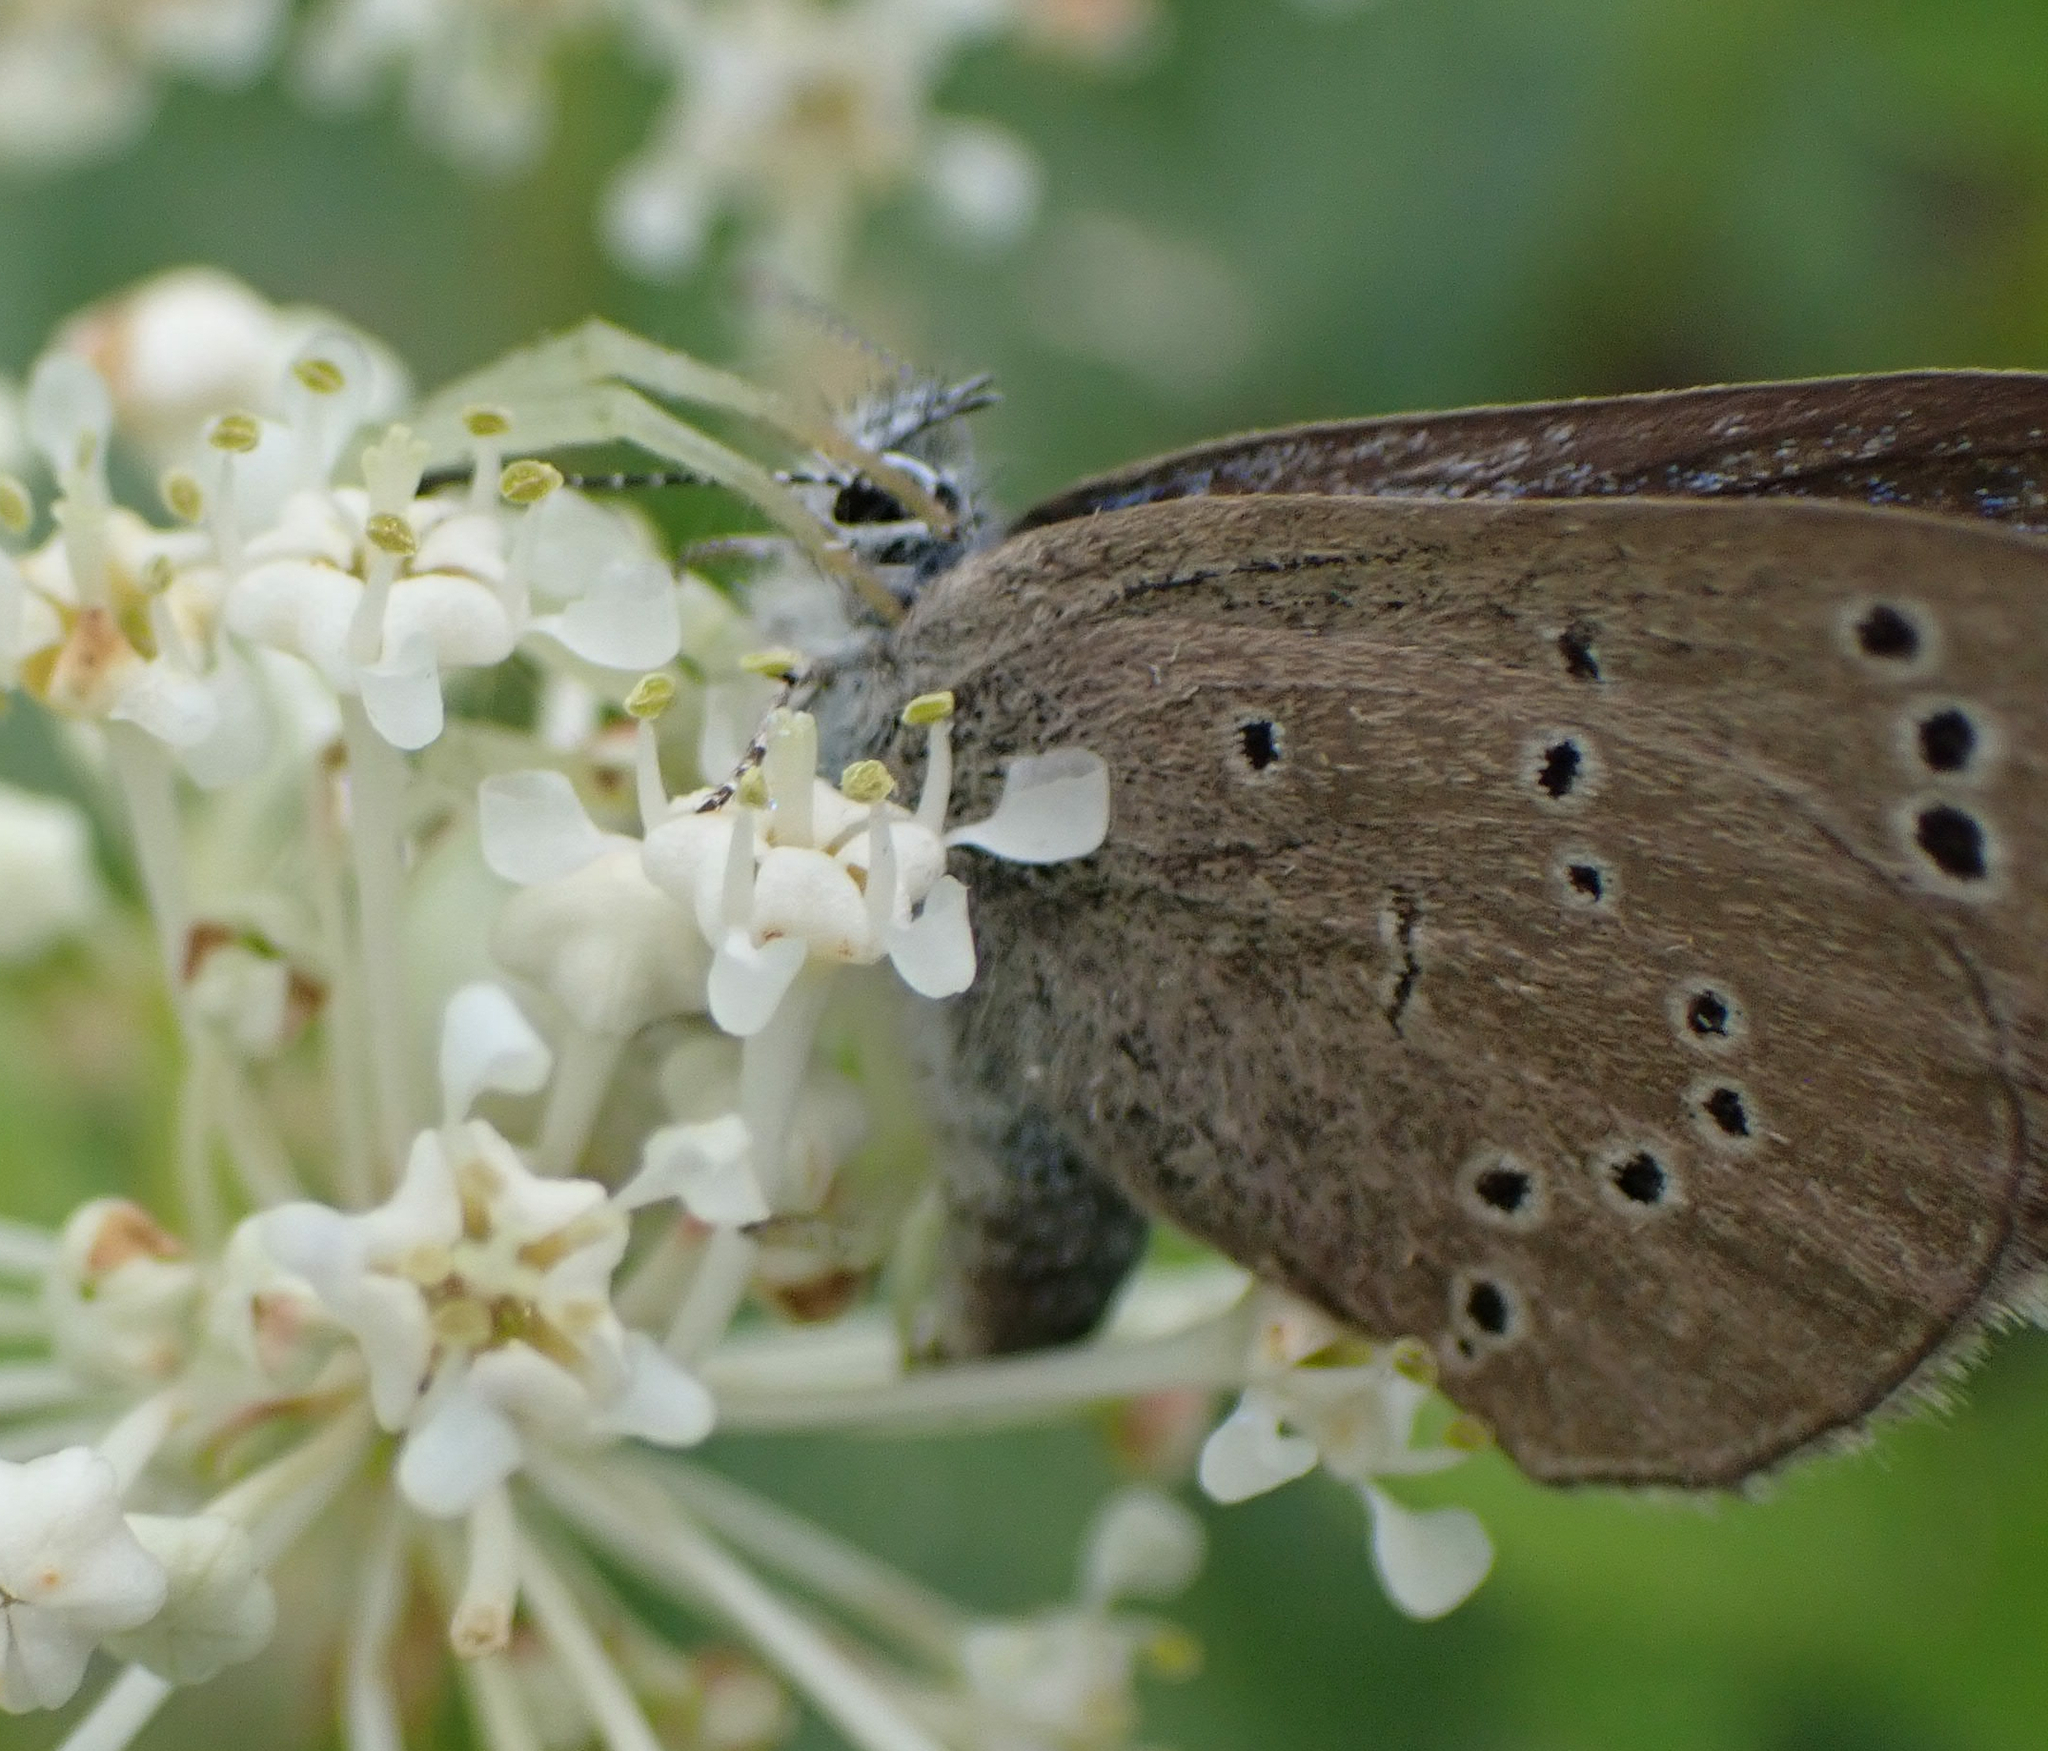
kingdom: Animalia
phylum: Arthropoda
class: Insecta
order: Lepidoptera
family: Lycaenidae
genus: Glaucopsyche
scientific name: Glaucopsyche lygdamus
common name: Silvery blue
